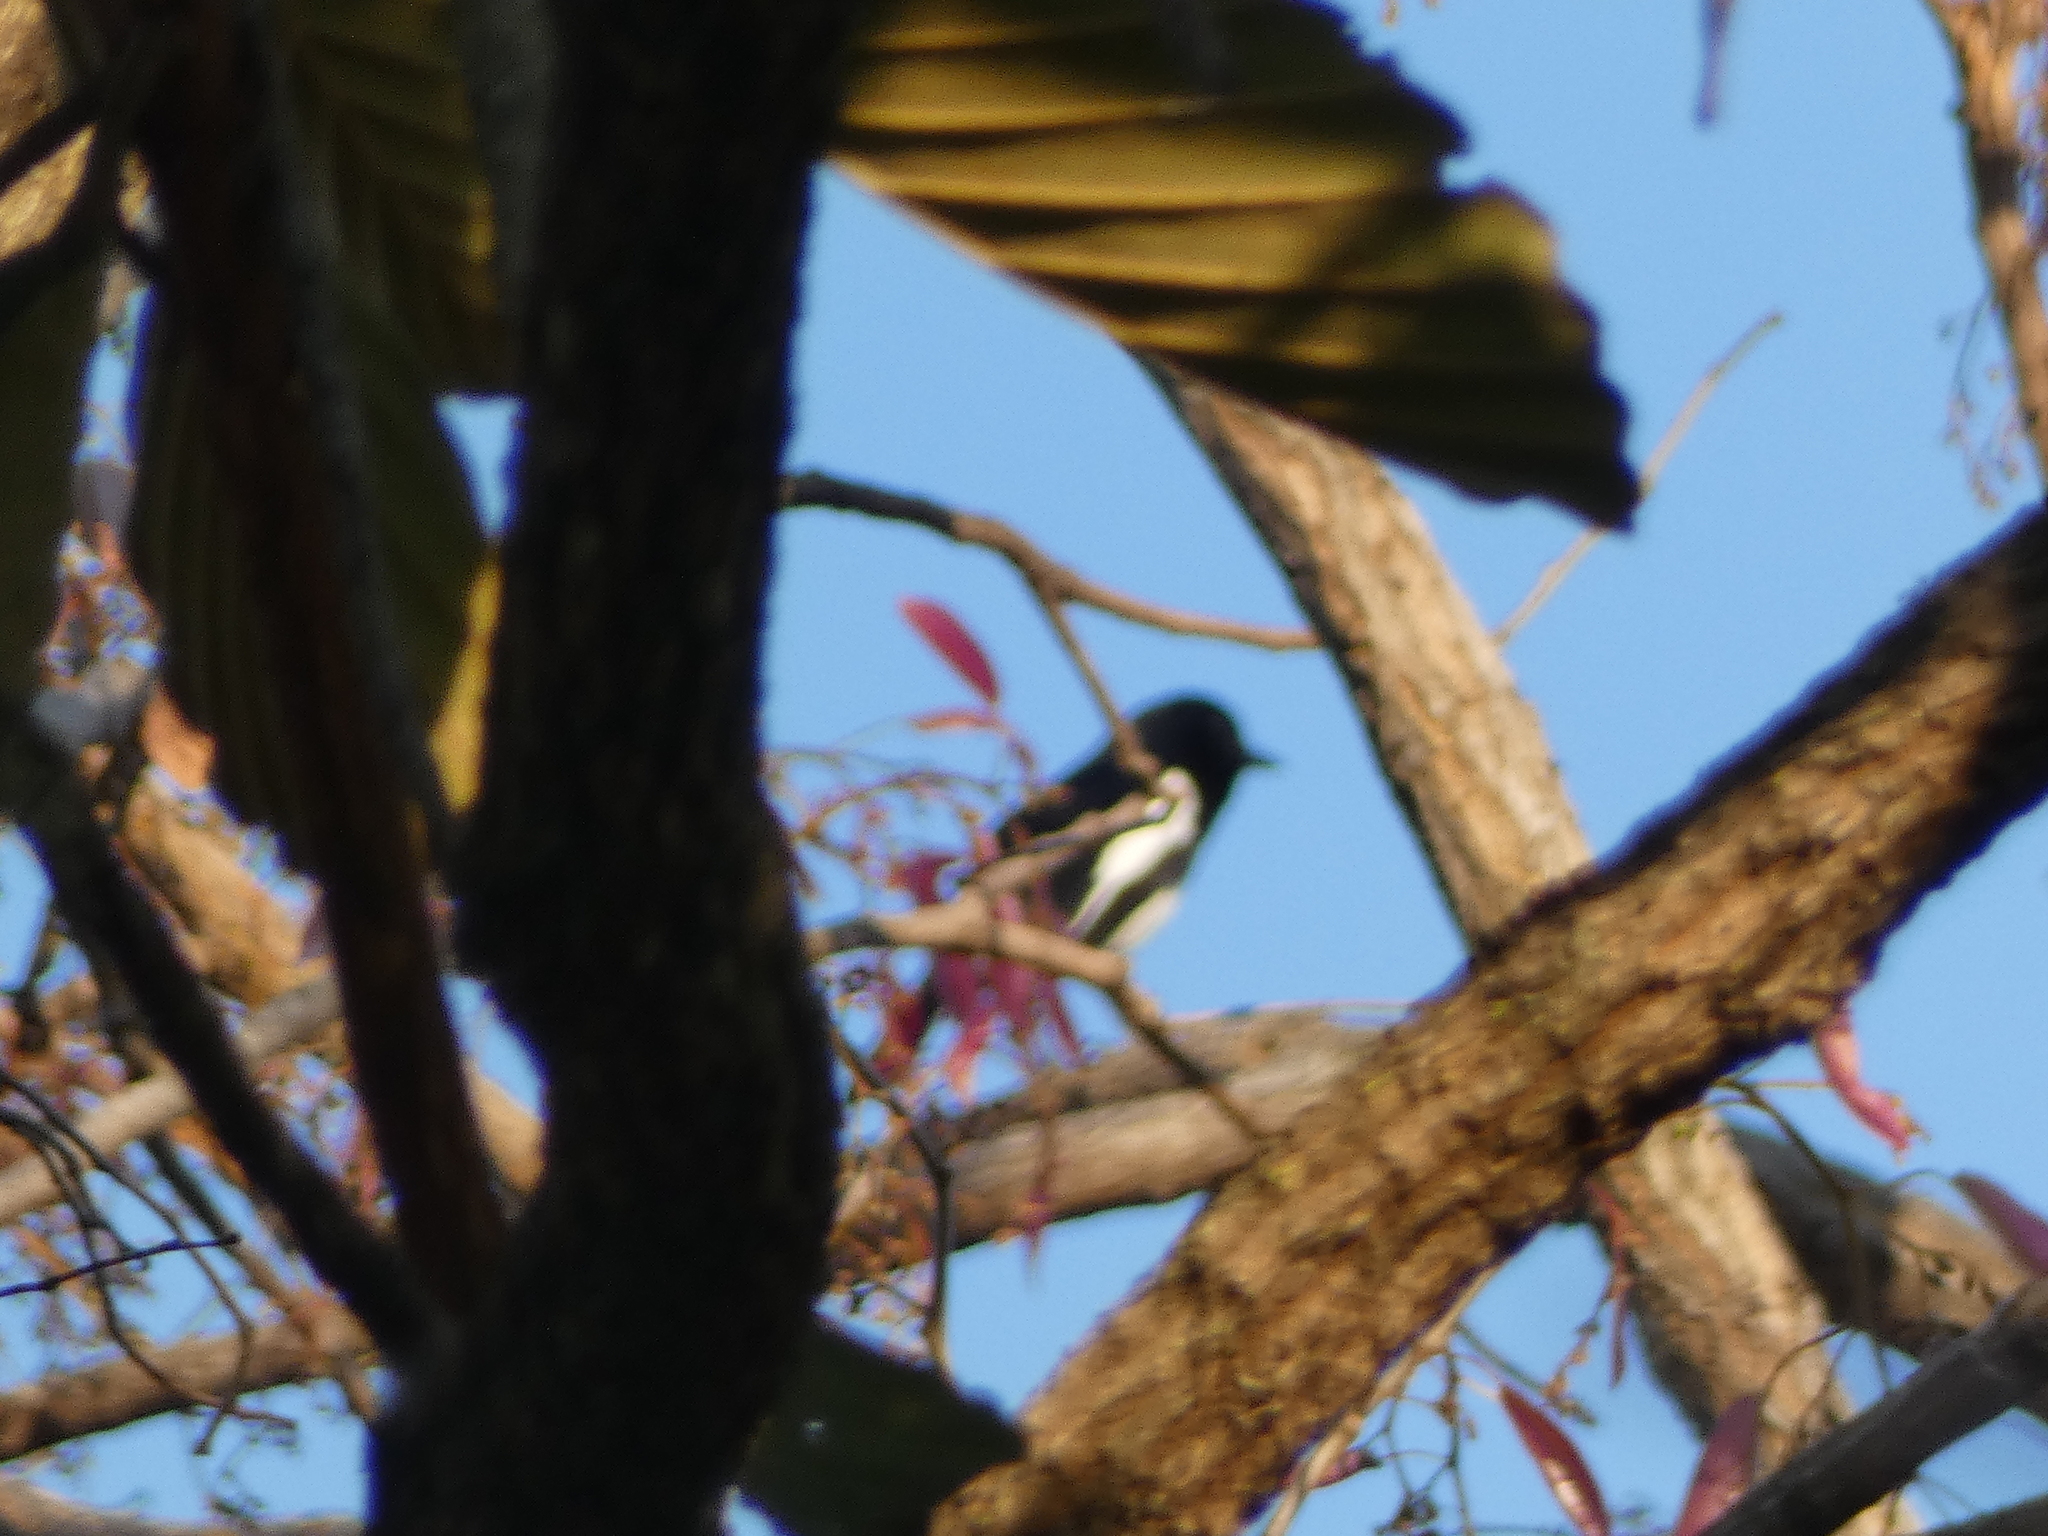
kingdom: Animalia
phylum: Chordata
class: Aves
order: Passeriformes
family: Muscicapidae
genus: Copsychus
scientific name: Copsychus saularis
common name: Oriental magpie-robin
